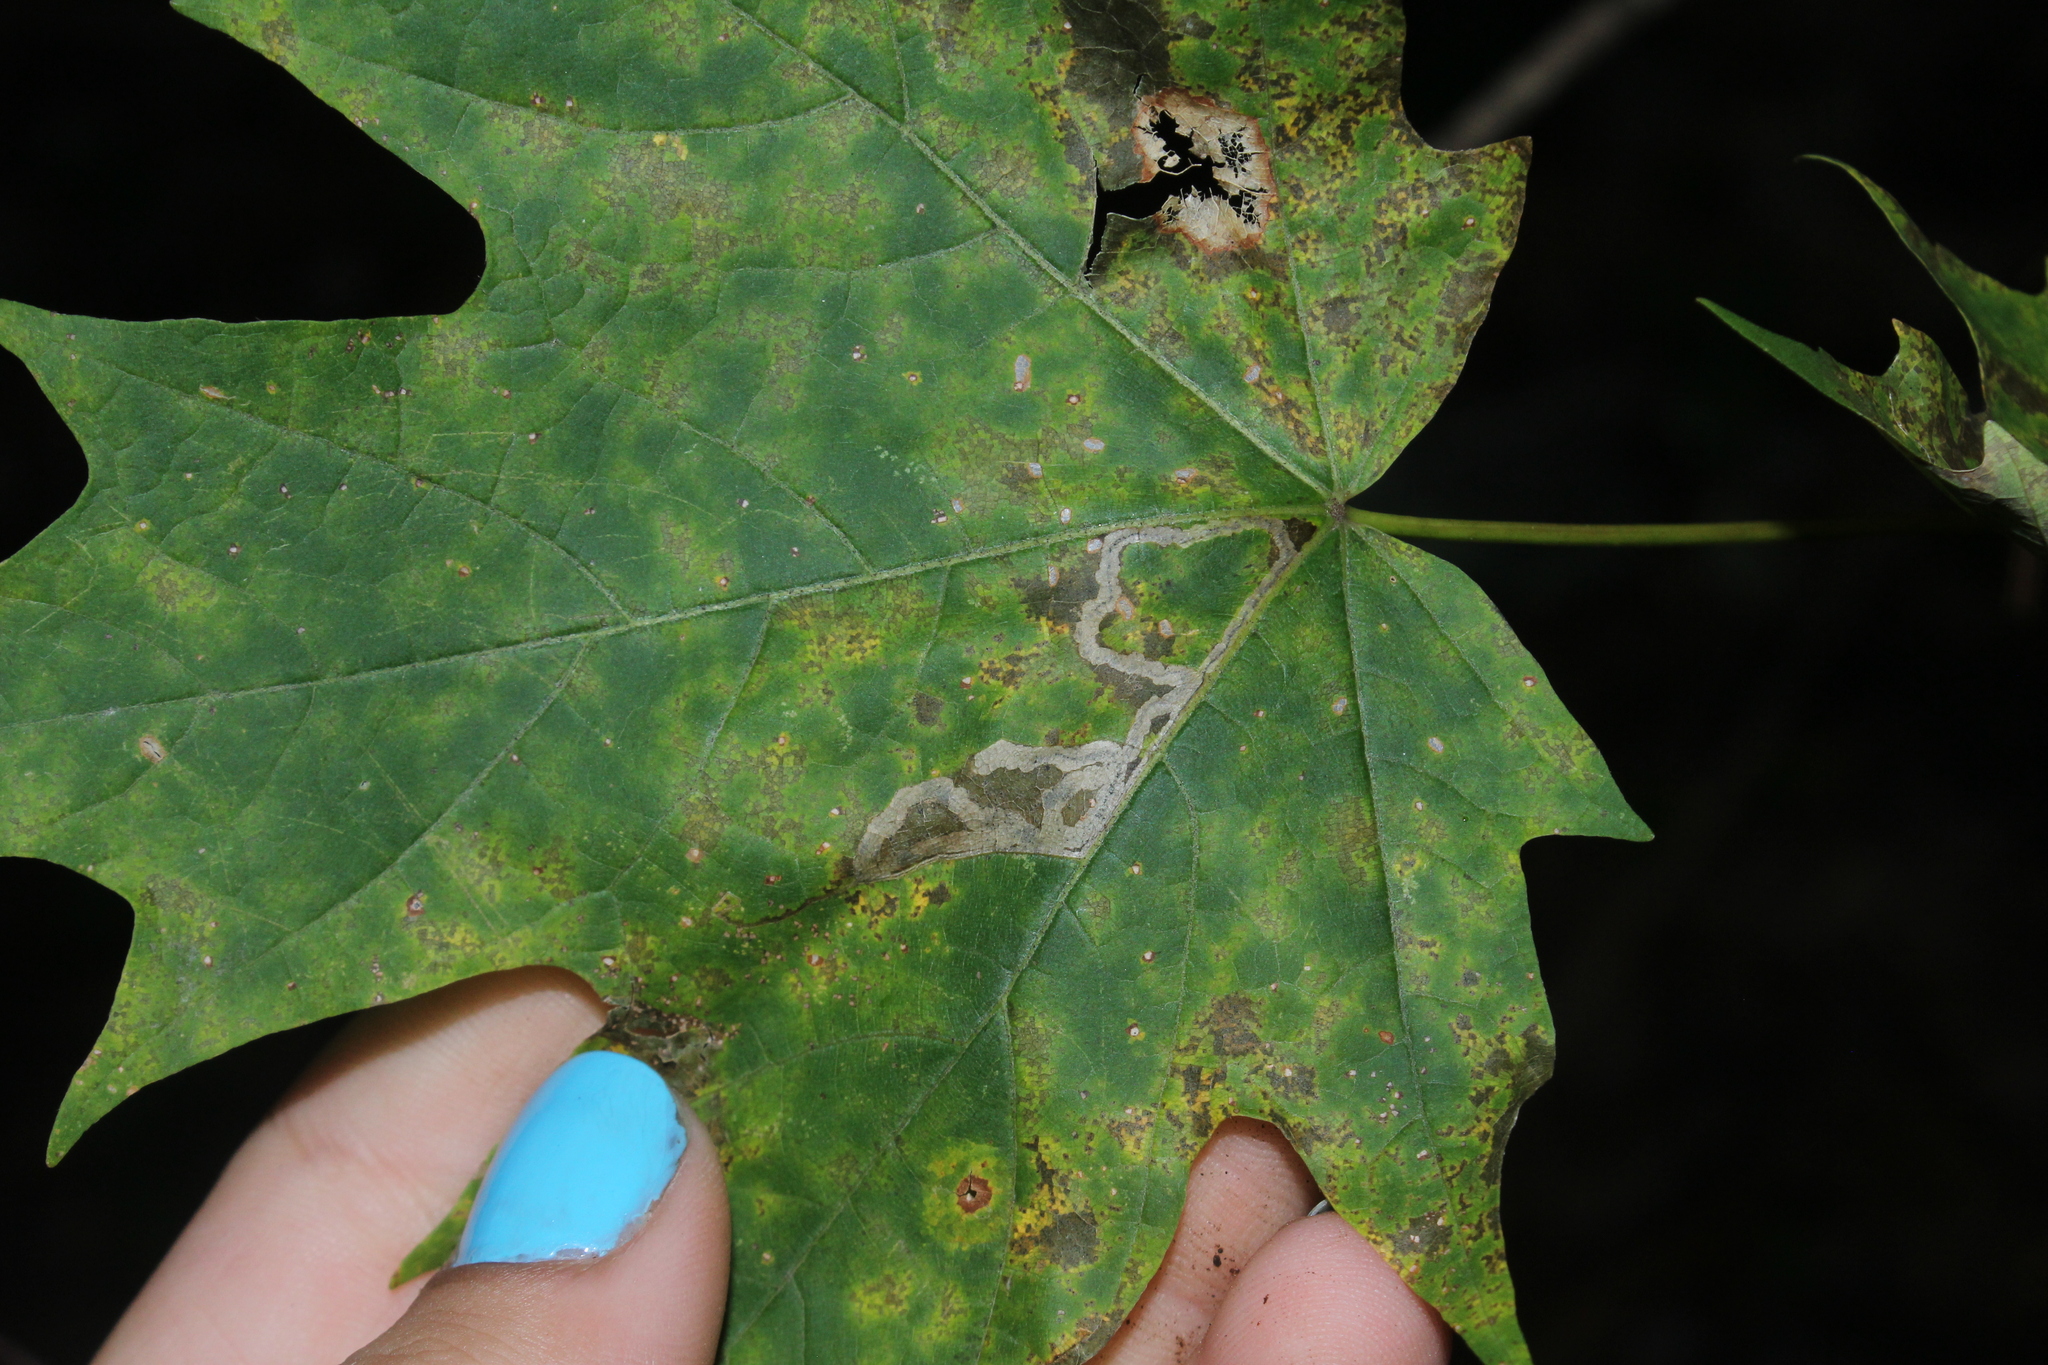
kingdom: Animalia
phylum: Arthropoda
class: Insecta
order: Lepidoptera
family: Nepticulidae
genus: Glaucolepis
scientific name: Glaucolepis saccharella
